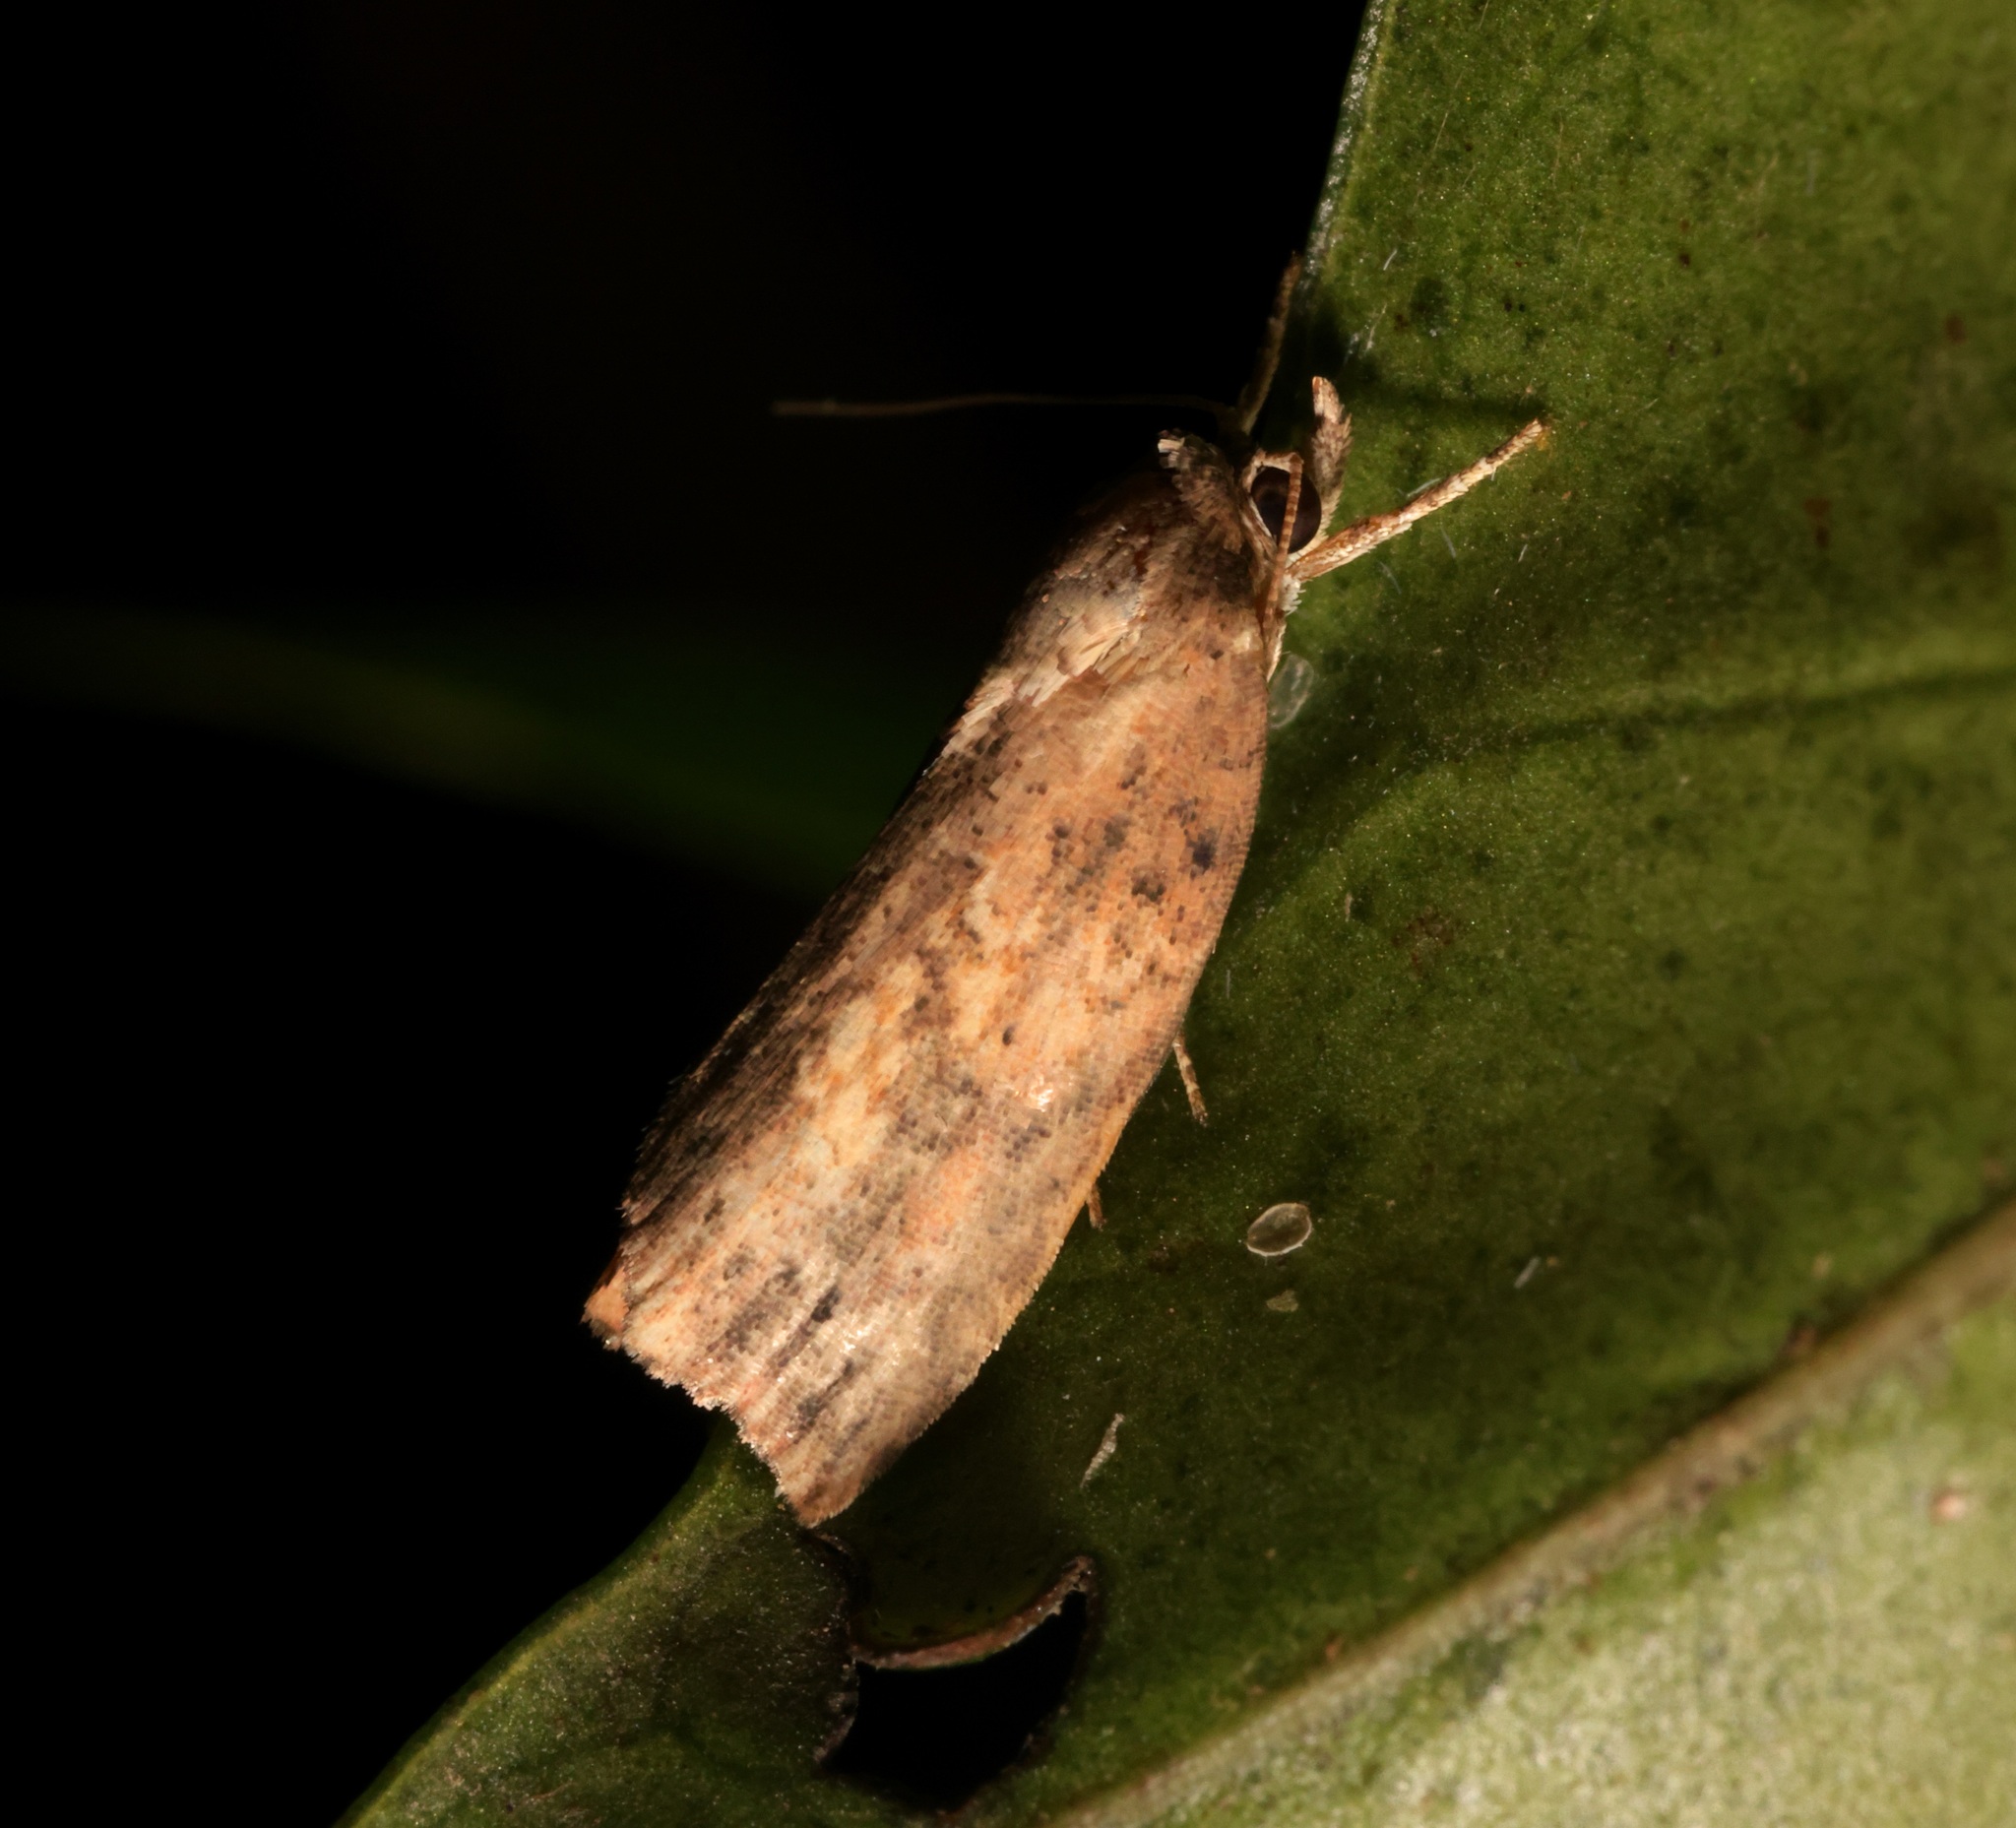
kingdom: Animalia
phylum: Arthropoda
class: Insecta
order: Lepidoptera
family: Nolidae
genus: Camptozada
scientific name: Camptozada mirabilis
